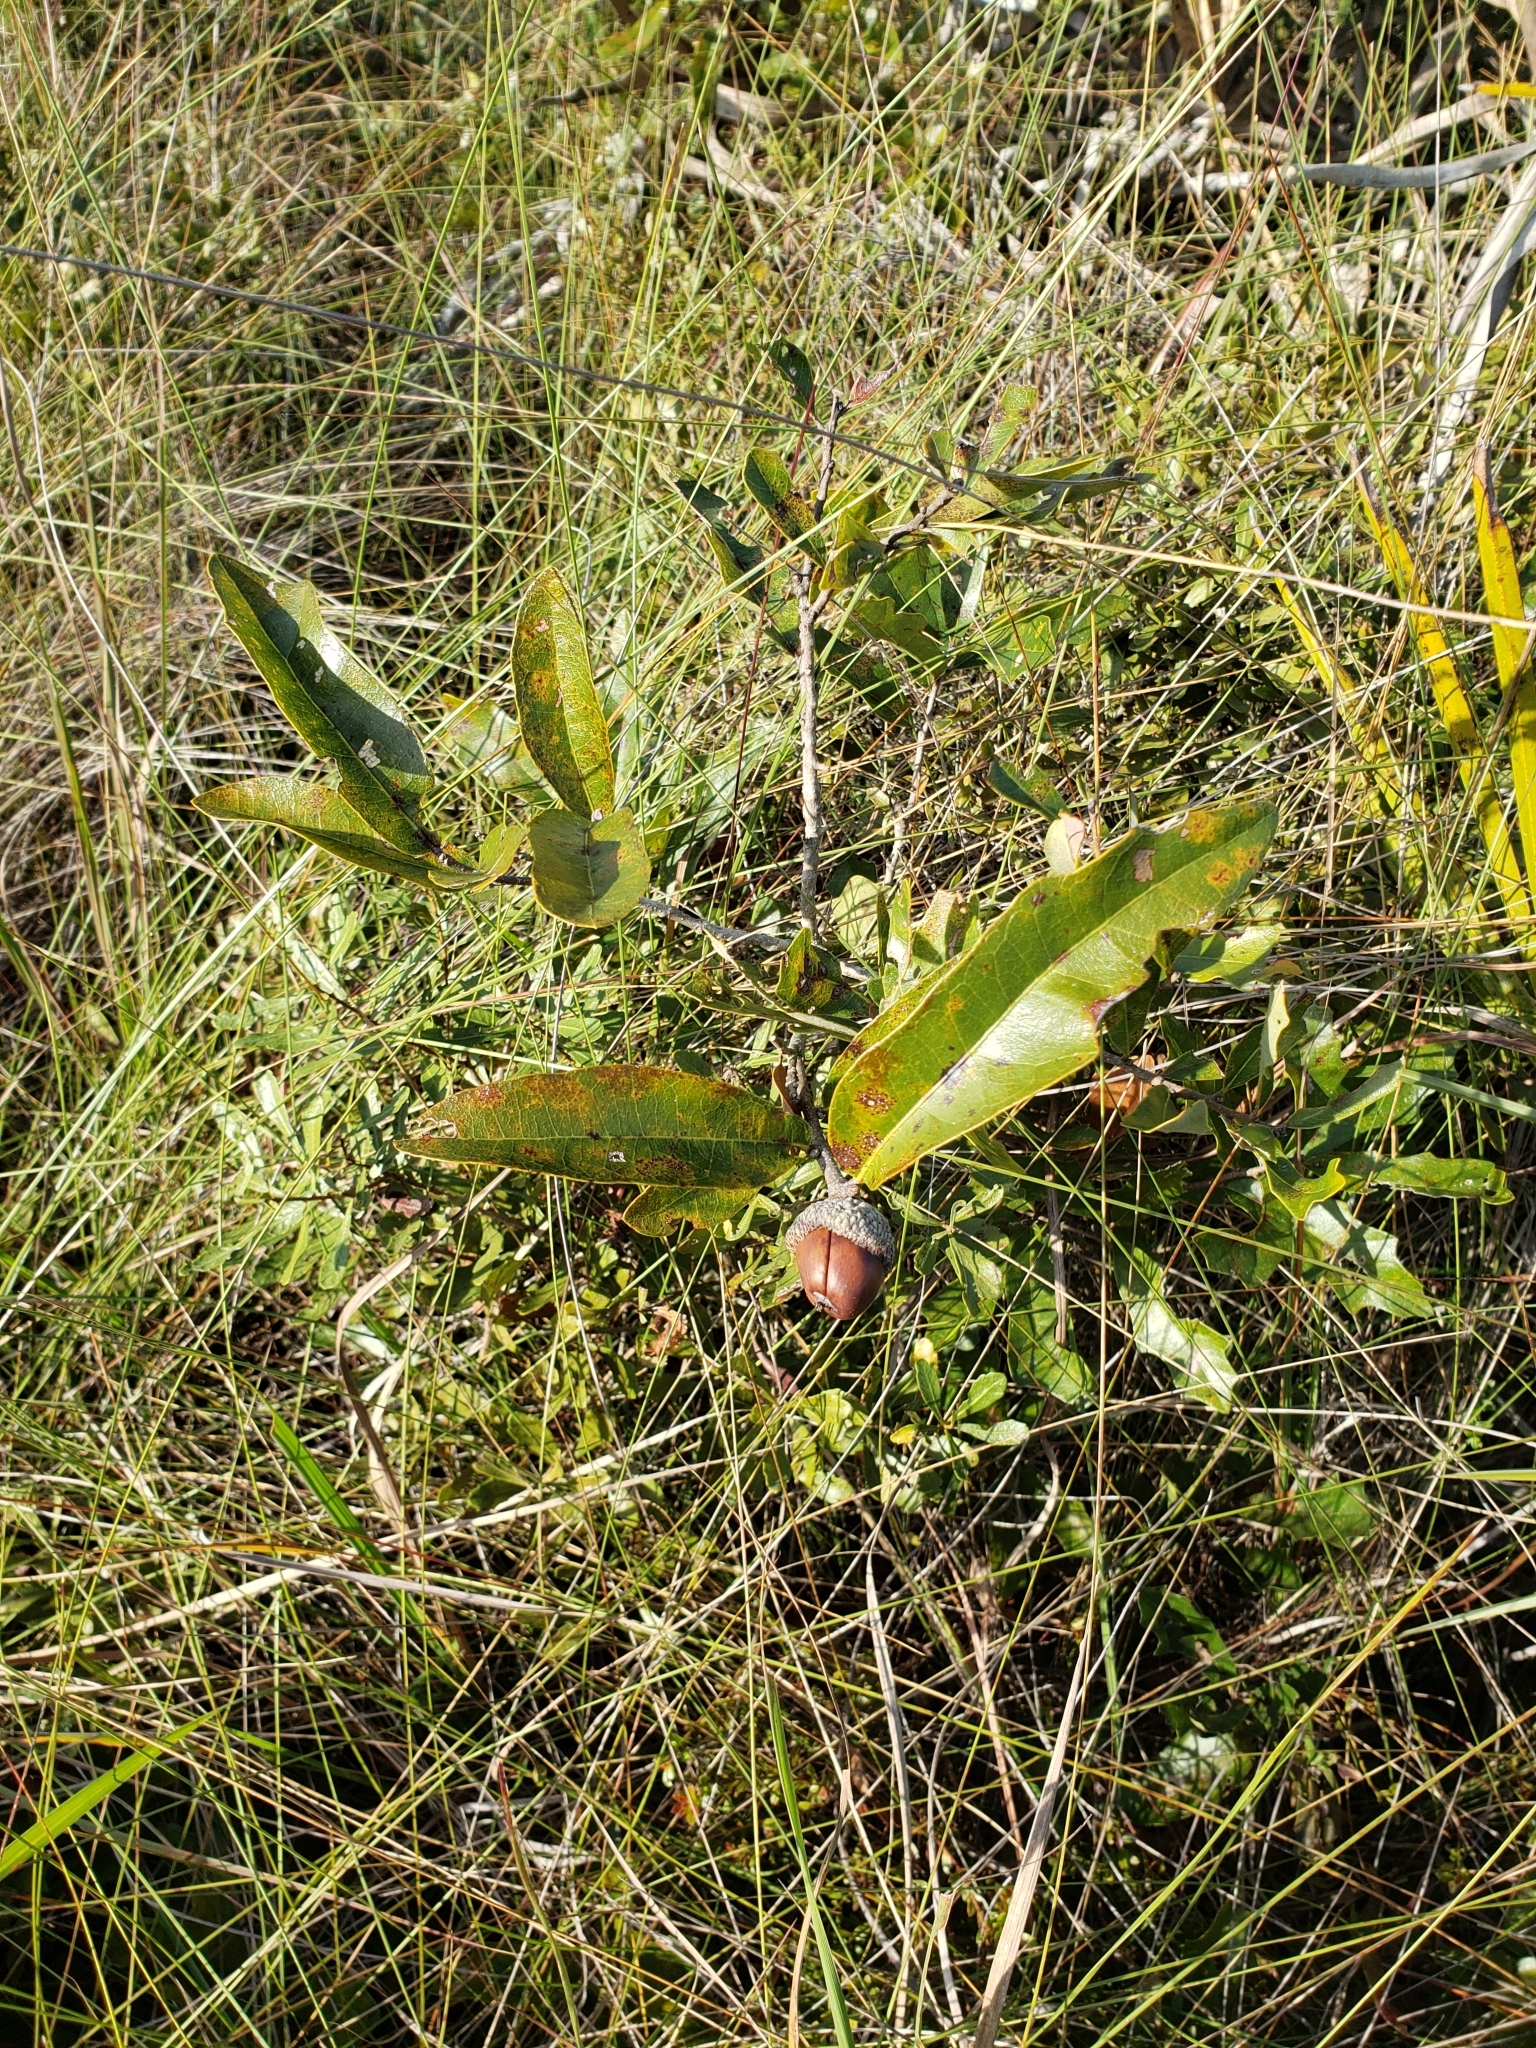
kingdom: Plantae
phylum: Tracheophyta
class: Magnoliopsida
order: Fagales
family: Fagaceae
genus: Quercus
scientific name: Quercus minima
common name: Dwarf live oak
